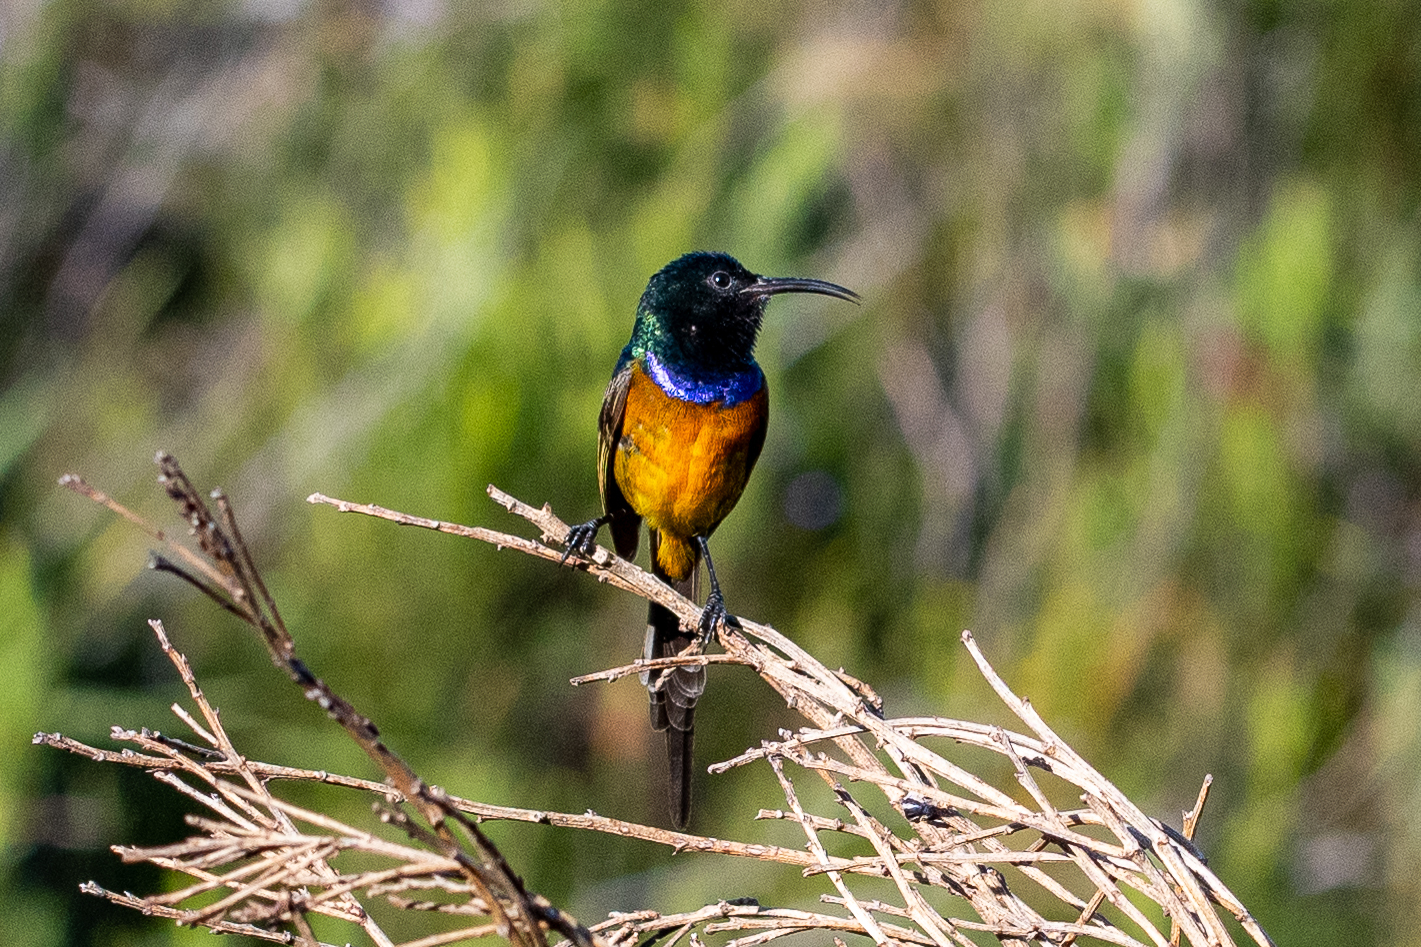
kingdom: Animalia
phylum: Chordata
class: Aves
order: Passeriformes
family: Nectariniidae
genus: Anthobaphes
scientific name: Anthobaphes violacea
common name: Orange-breasted sunbird
